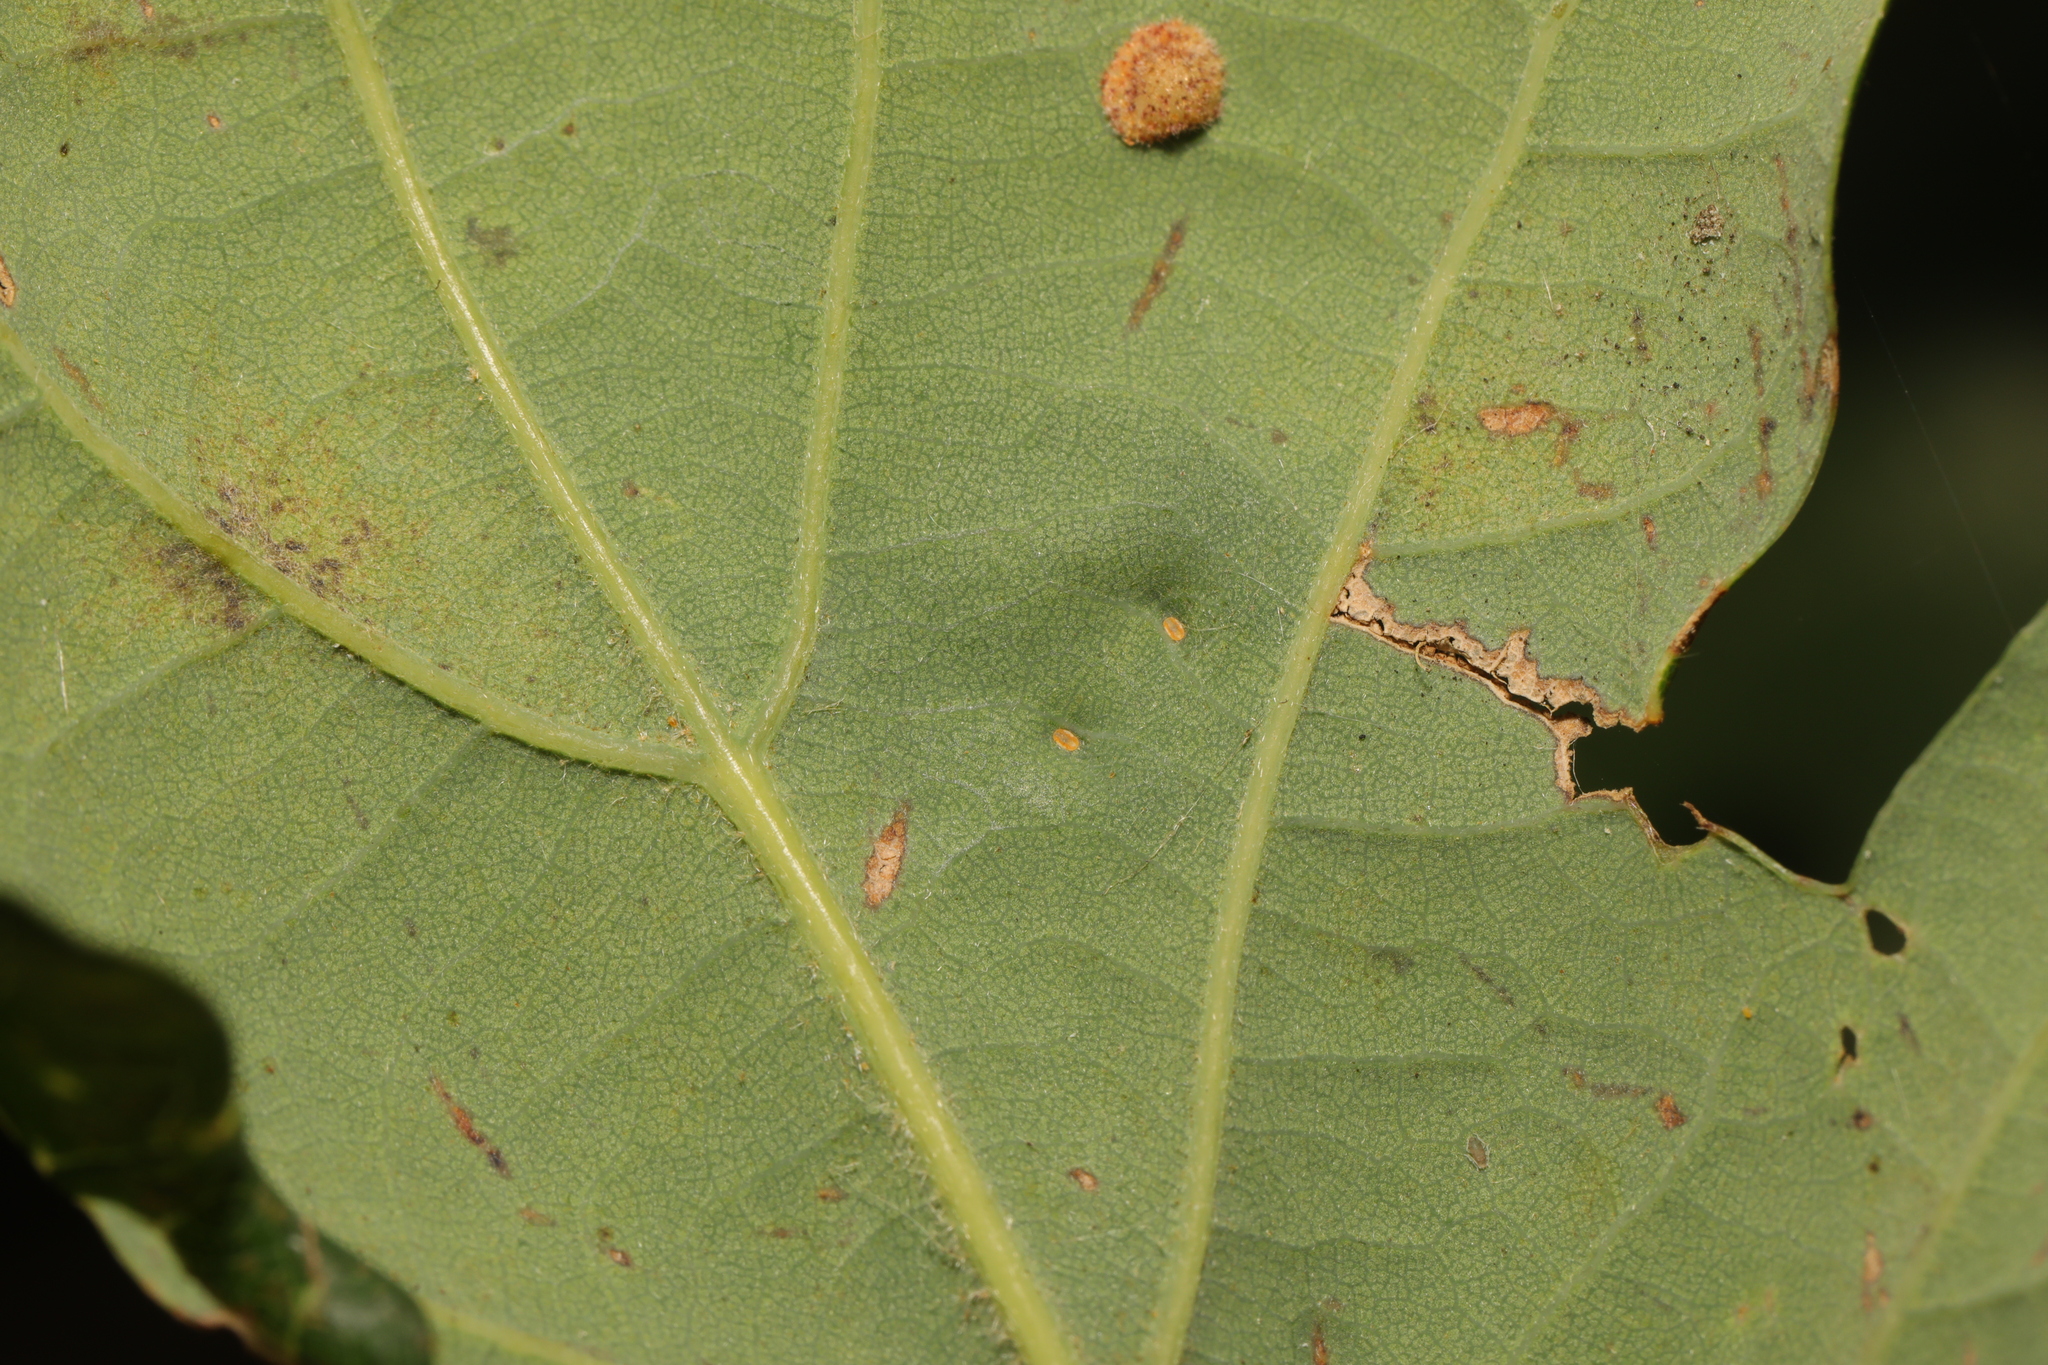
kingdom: Animalia
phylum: Arthropoda
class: Insecta
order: Hemiptera
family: Triozidae
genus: Trioza
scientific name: Trioza remota
